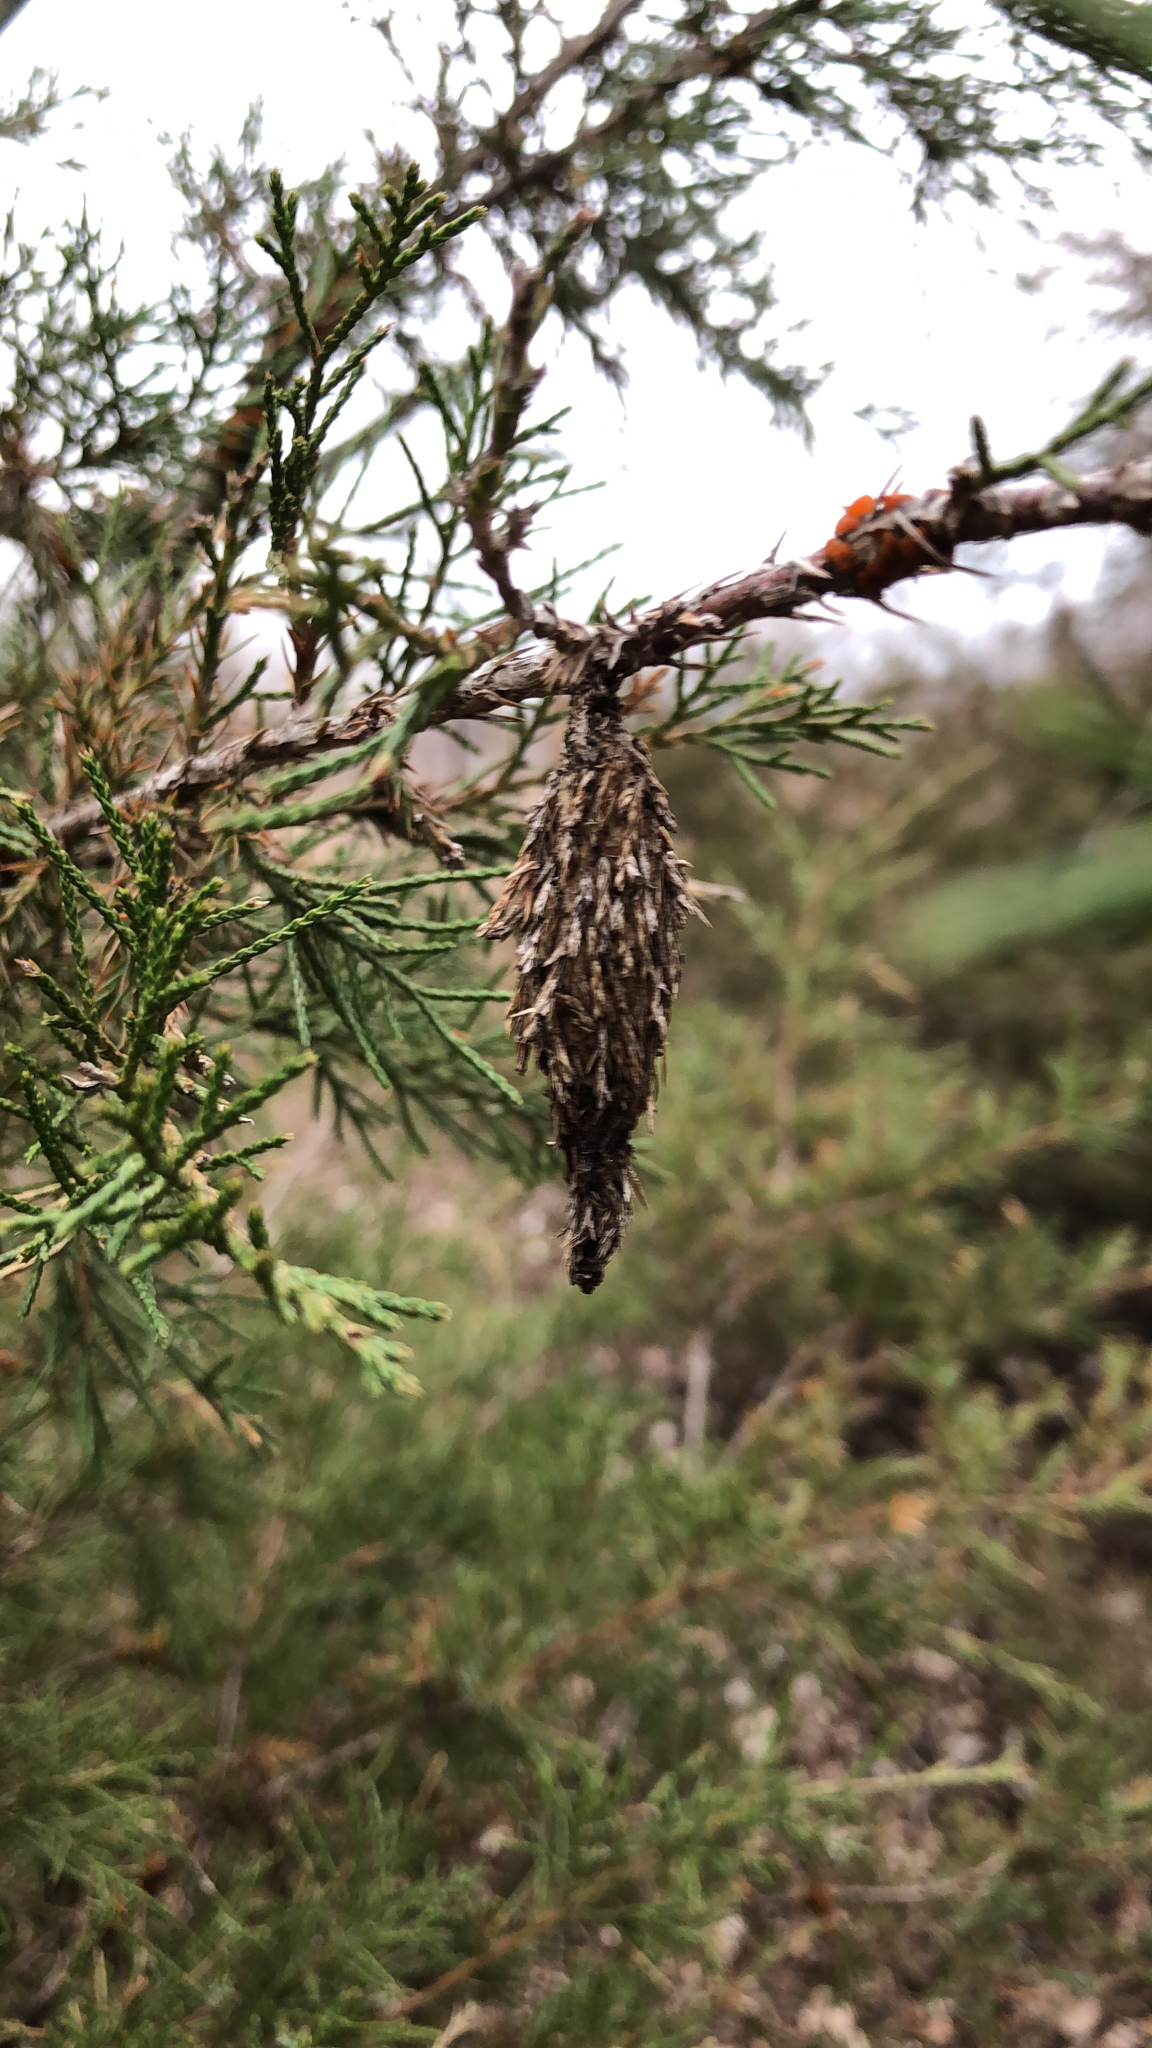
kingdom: Animalia
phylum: Arthropoda
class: Insecta
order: Lepidoptera
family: Psychidae
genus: Thyridopteryx
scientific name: Thyridopteryx ephemeraeformis
